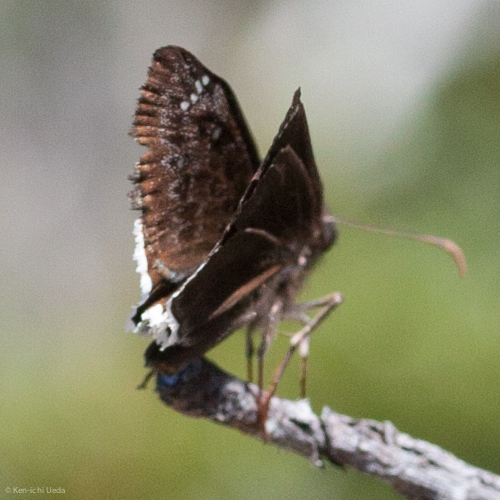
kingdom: Animalia
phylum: Arthropoda
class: Insecta
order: Lepidoptera
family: Hesperiidae
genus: Erynnis
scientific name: Erynnis tristis
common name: Mournful duskywing
